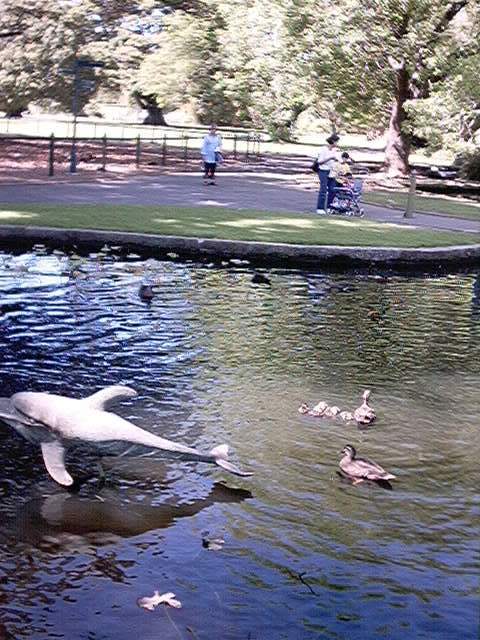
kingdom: Animalia
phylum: Chordata
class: Aves
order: Anseriformes
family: Anatidae
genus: Anas
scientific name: Anas
